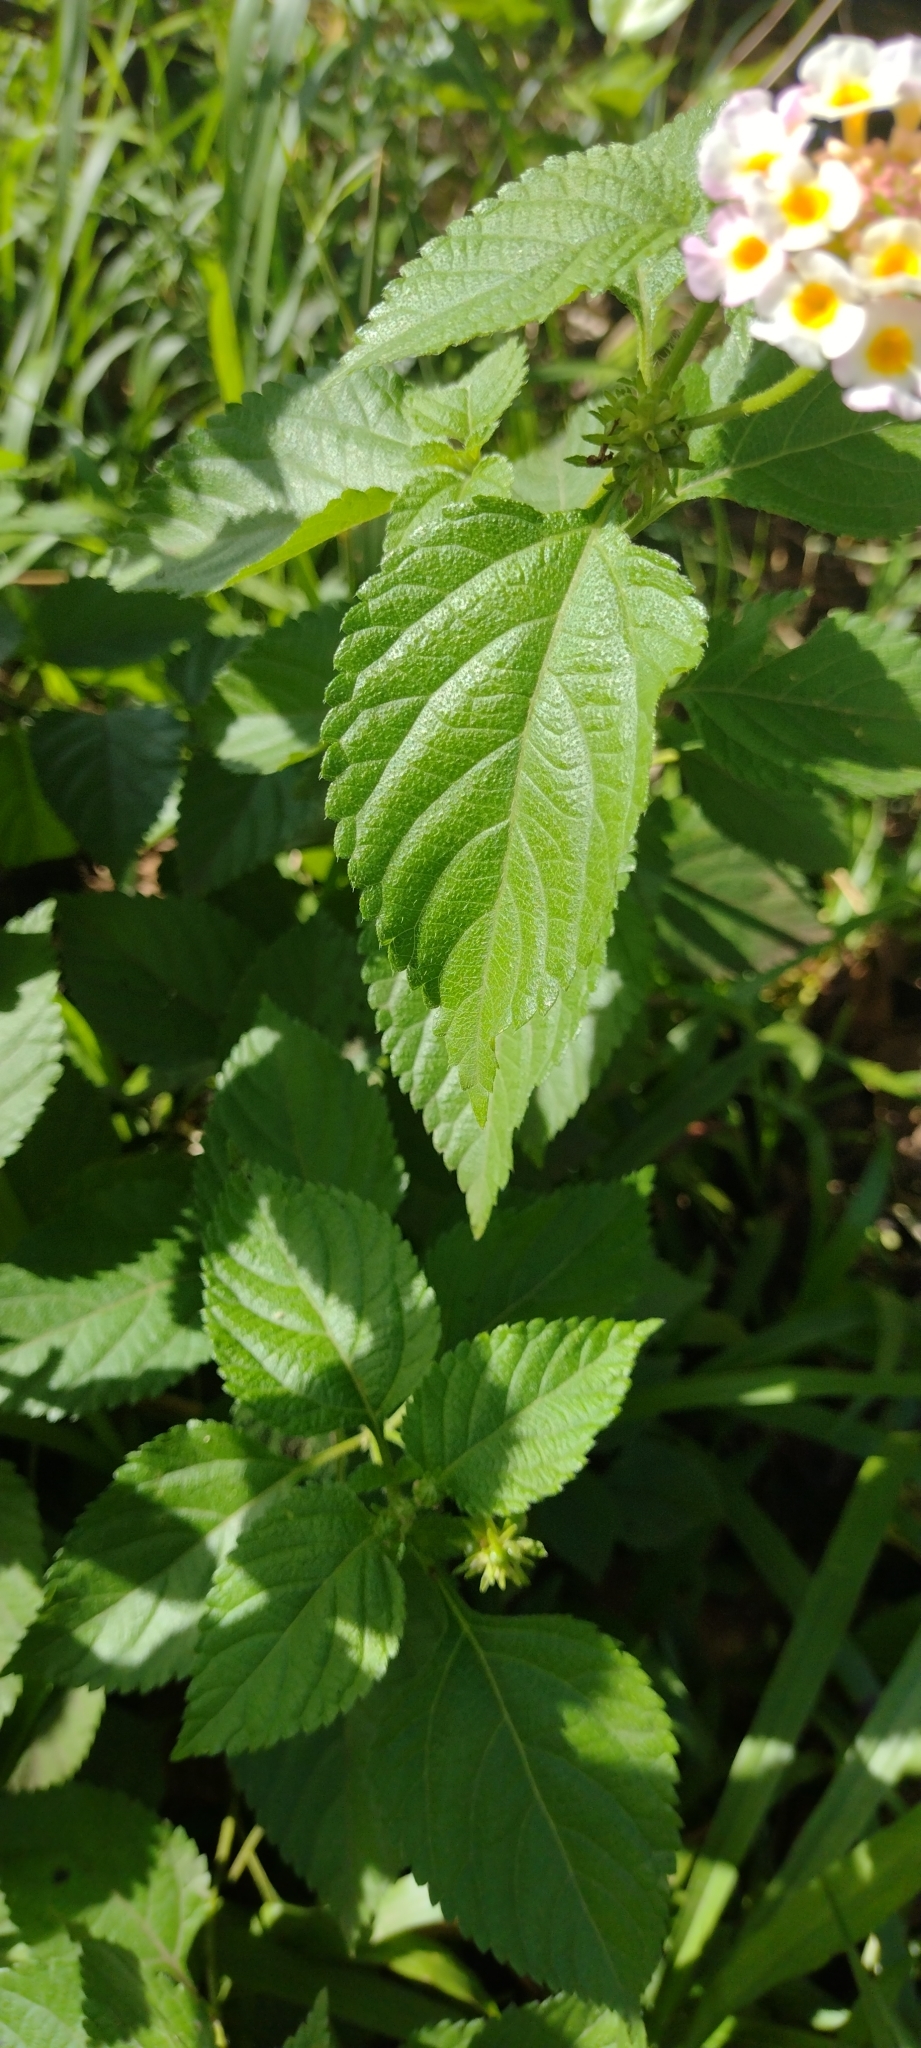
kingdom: Plantae
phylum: Tracheophyta
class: Magnoliopsida
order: Lamiales
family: Verbenaceae
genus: Lantana
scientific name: Lantana camara
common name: Lantana
